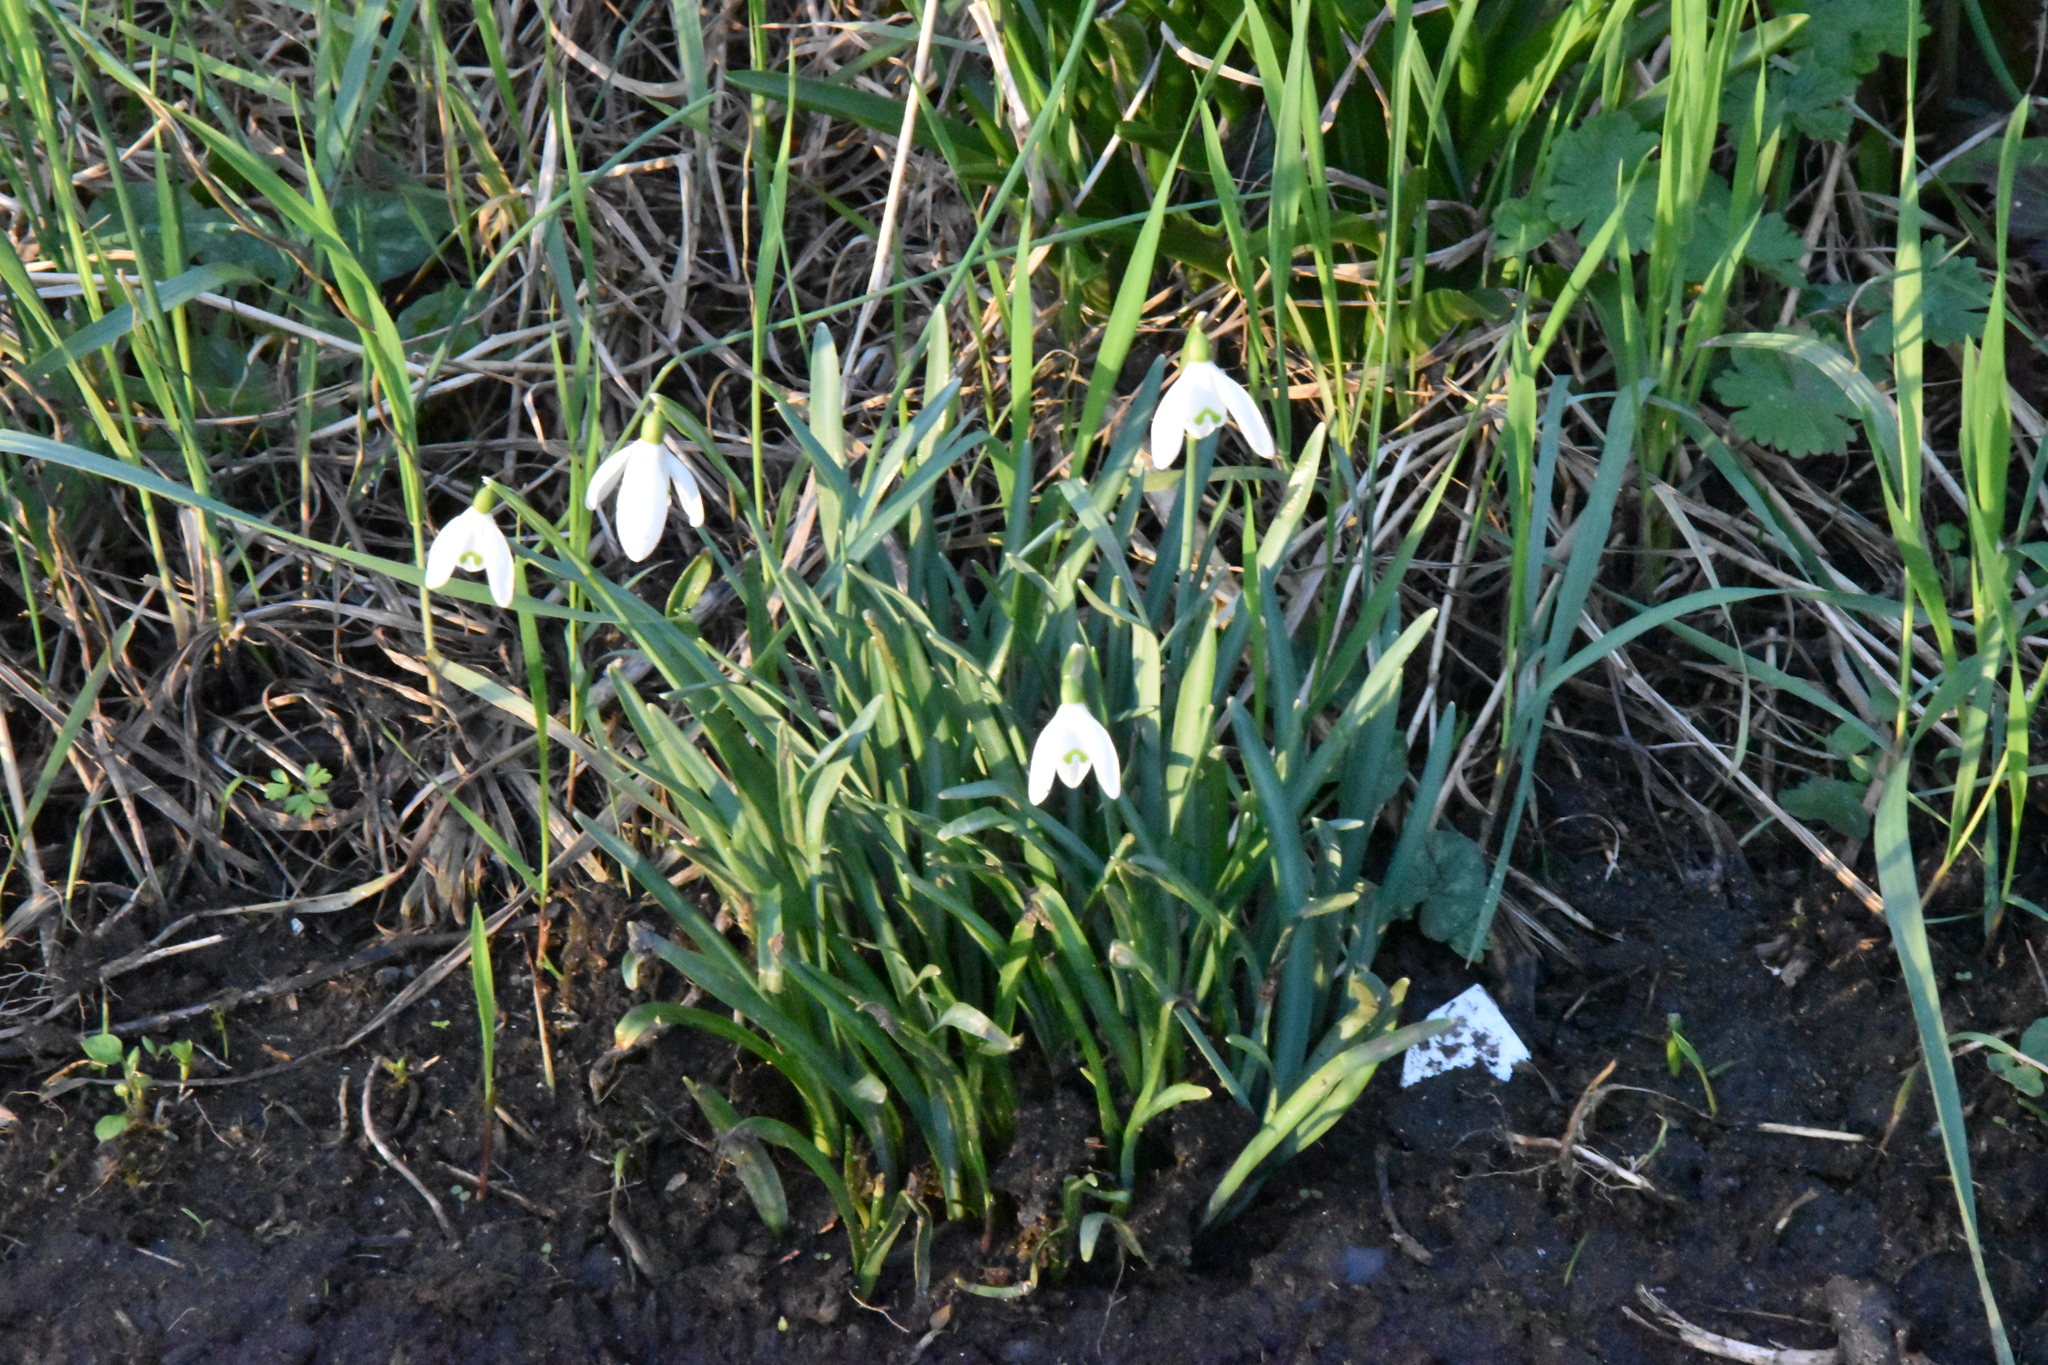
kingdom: Plantae
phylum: Tracheophyta
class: Liliopsida
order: Asparagales
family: Amaryllidaceae
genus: Galanthus
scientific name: Galanthus nivalis
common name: Snowdrop
